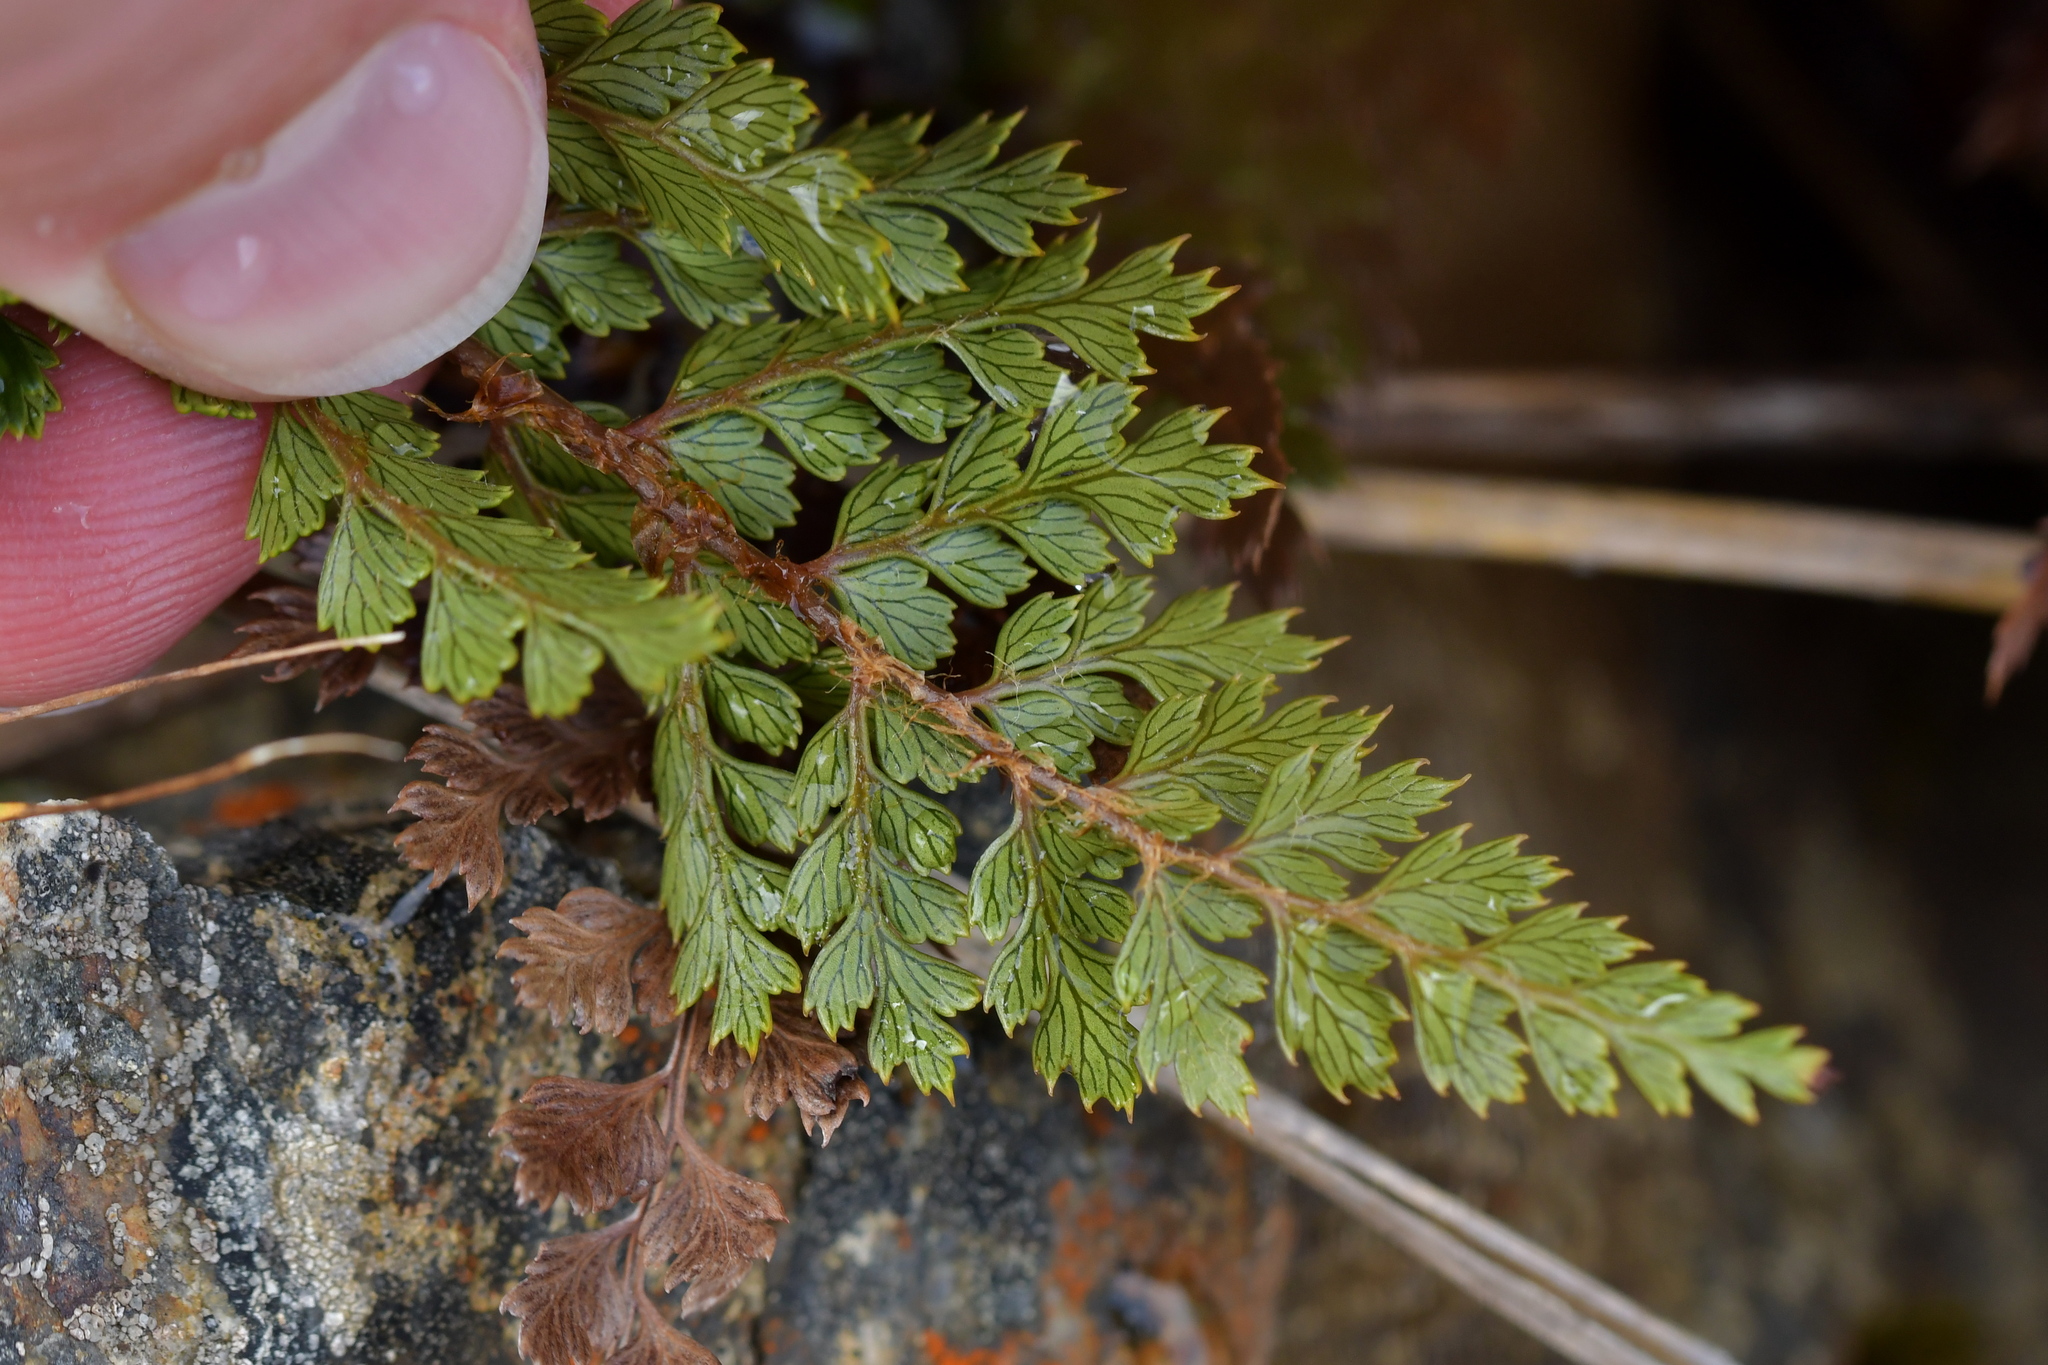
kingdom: Plantae
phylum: Tracheophyta
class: Polypodiopsida
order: Polypodiales
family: Dryopteridaceae
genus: Polystichum
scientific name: Polystichum vestitum
